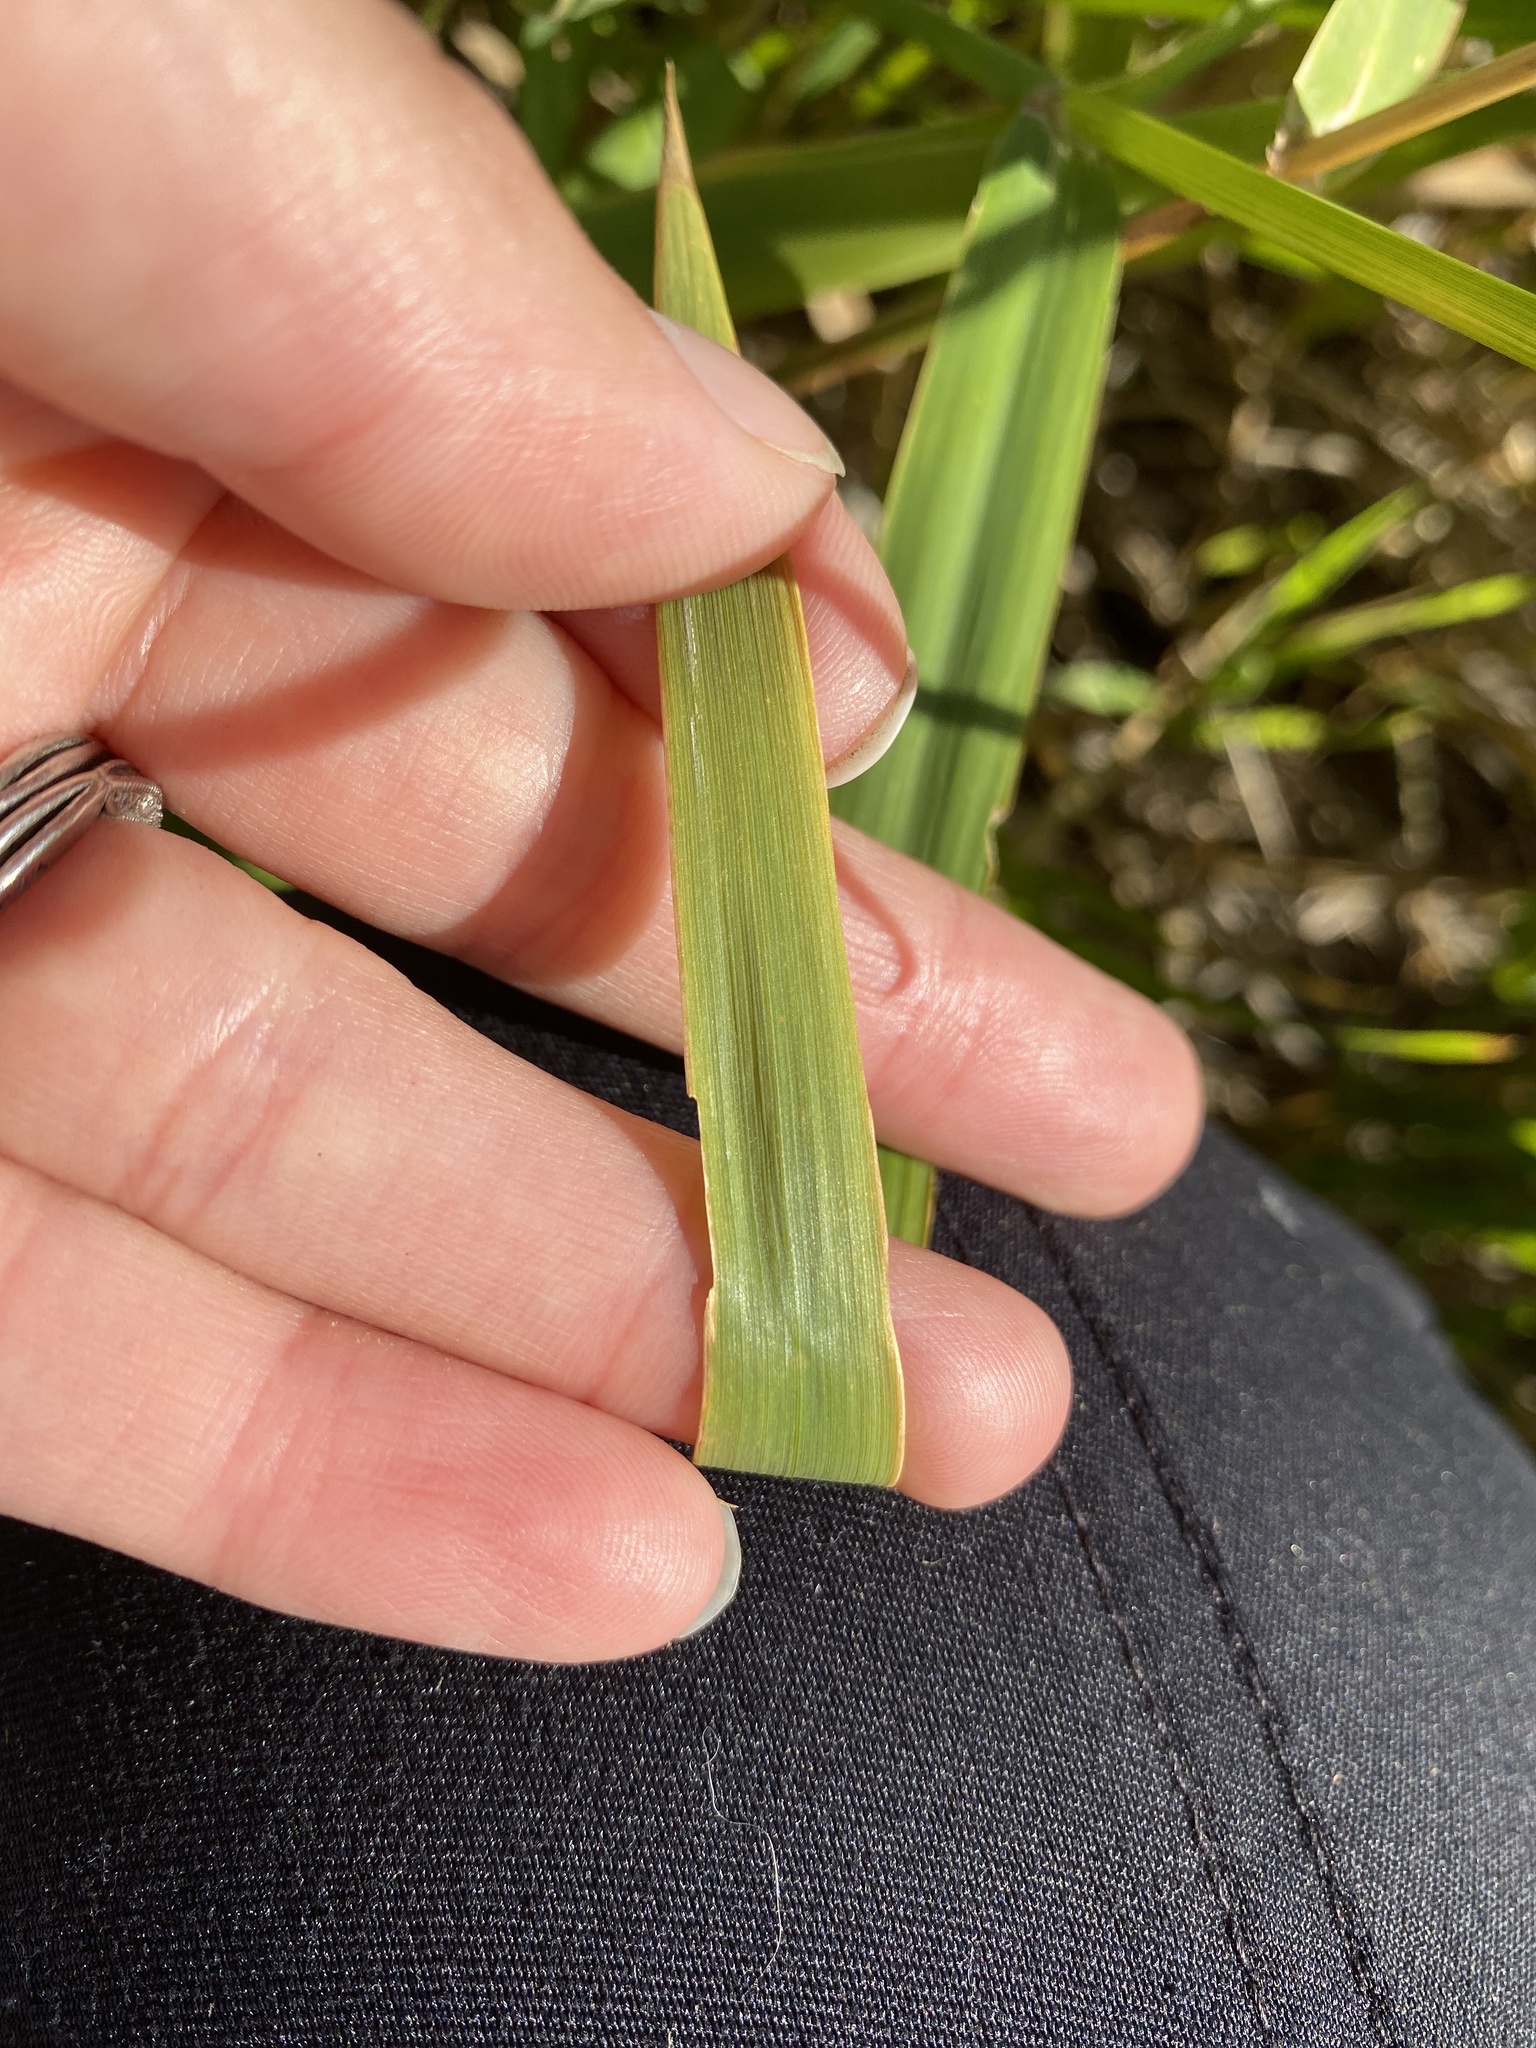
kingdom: Plantae
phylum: Tracheophyta
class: Liliopsida
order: Poales
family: Poaceae
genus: Phalaris
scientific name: Phalaris arundinacea
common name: Reed canary-grass
